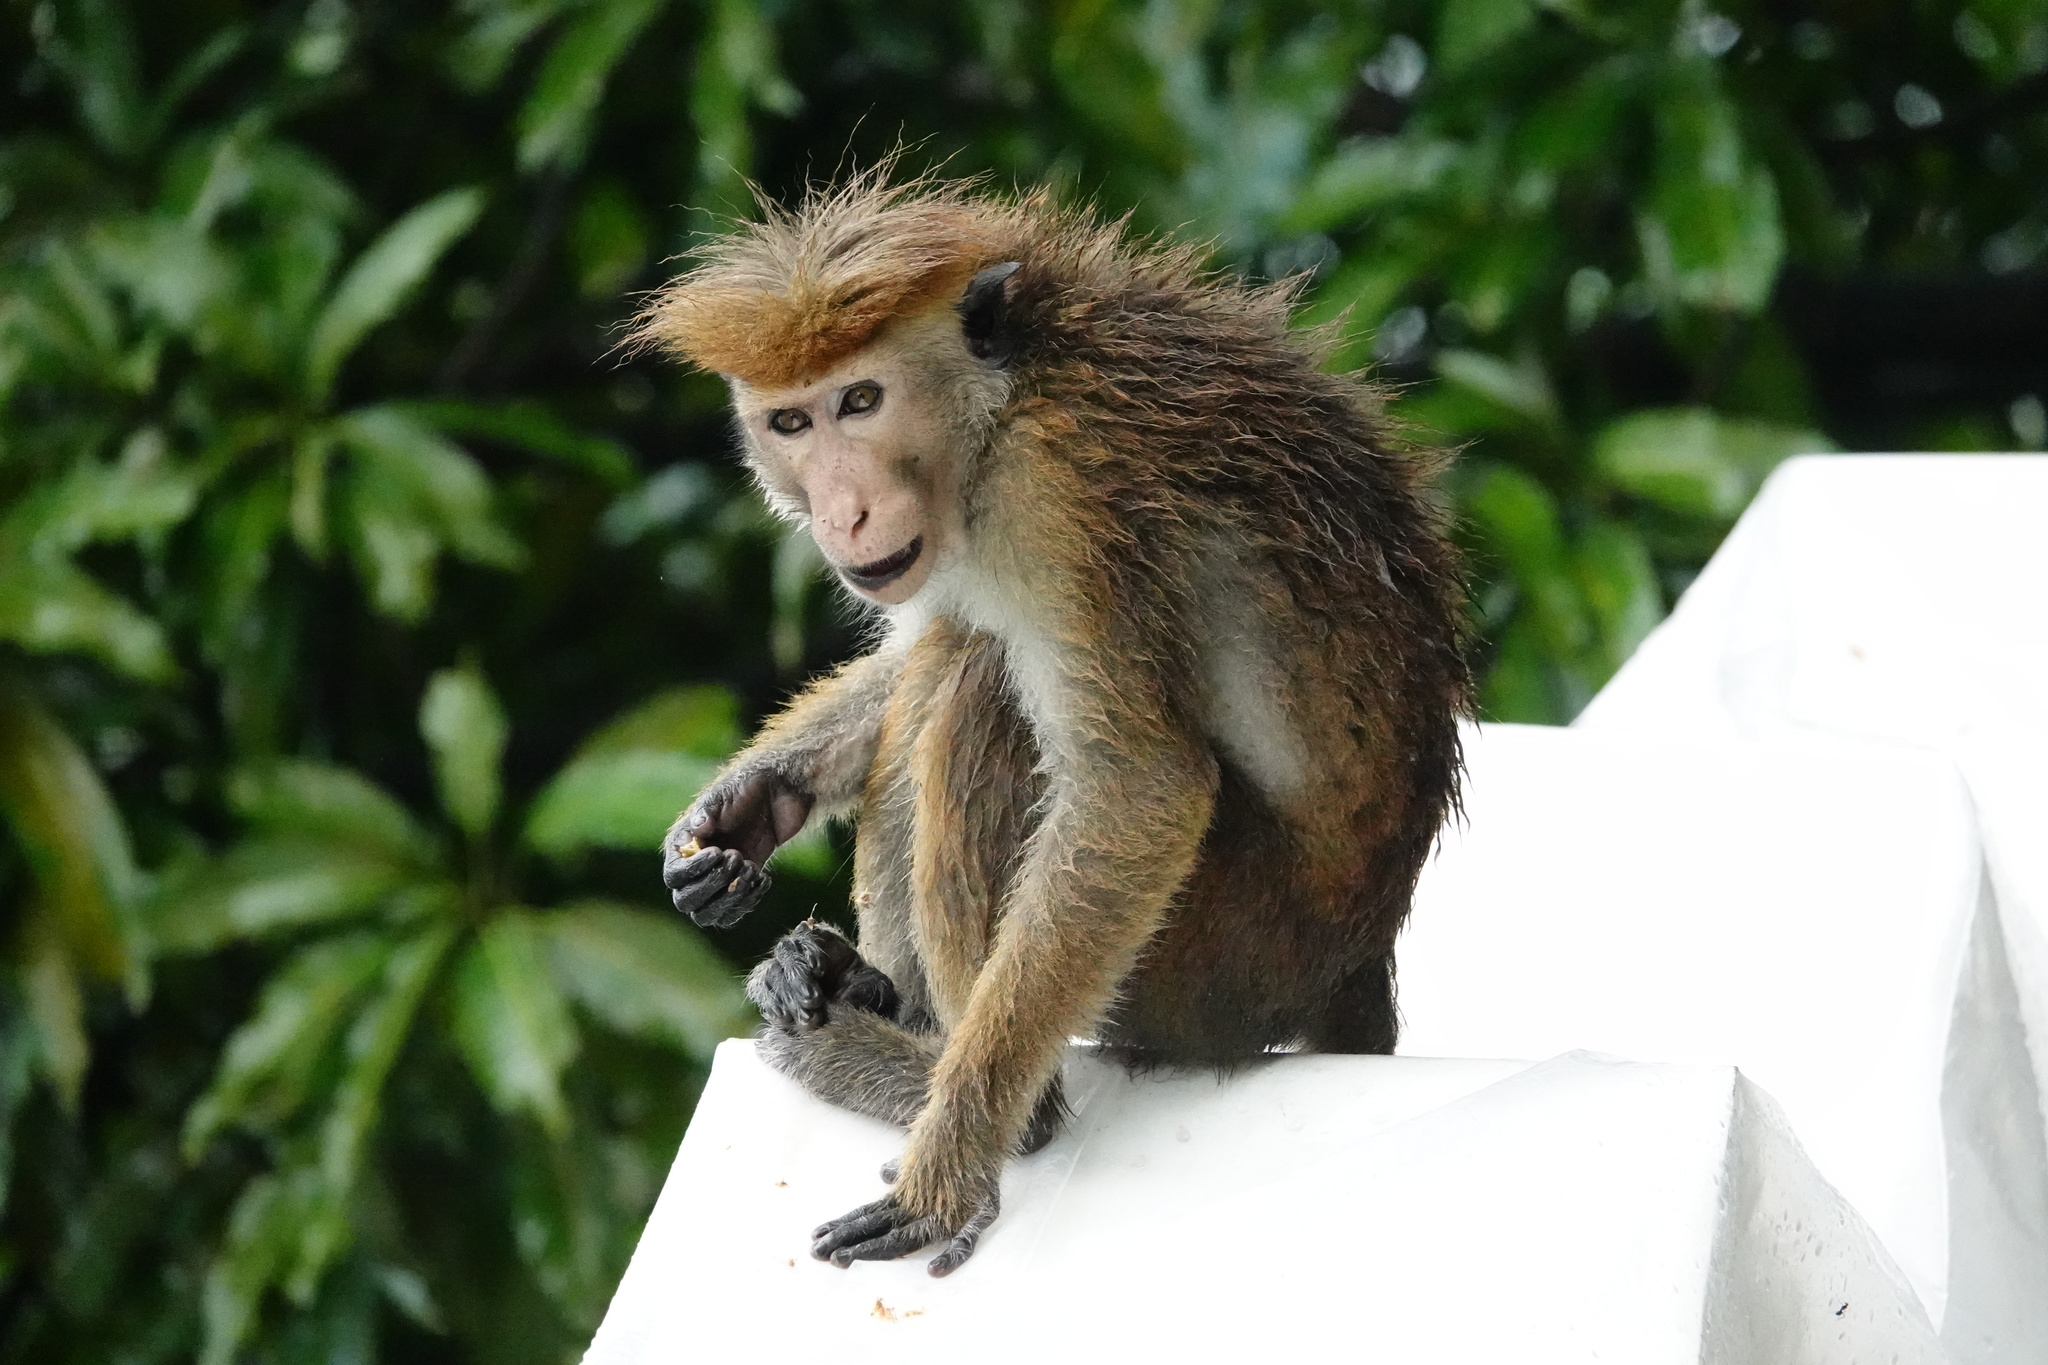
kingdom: Animalia
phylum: Chordata
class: Mammalia
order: Primates
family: Cercopithecidae
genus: Macaca
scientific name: Macaca sinica
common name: Toque macaque
